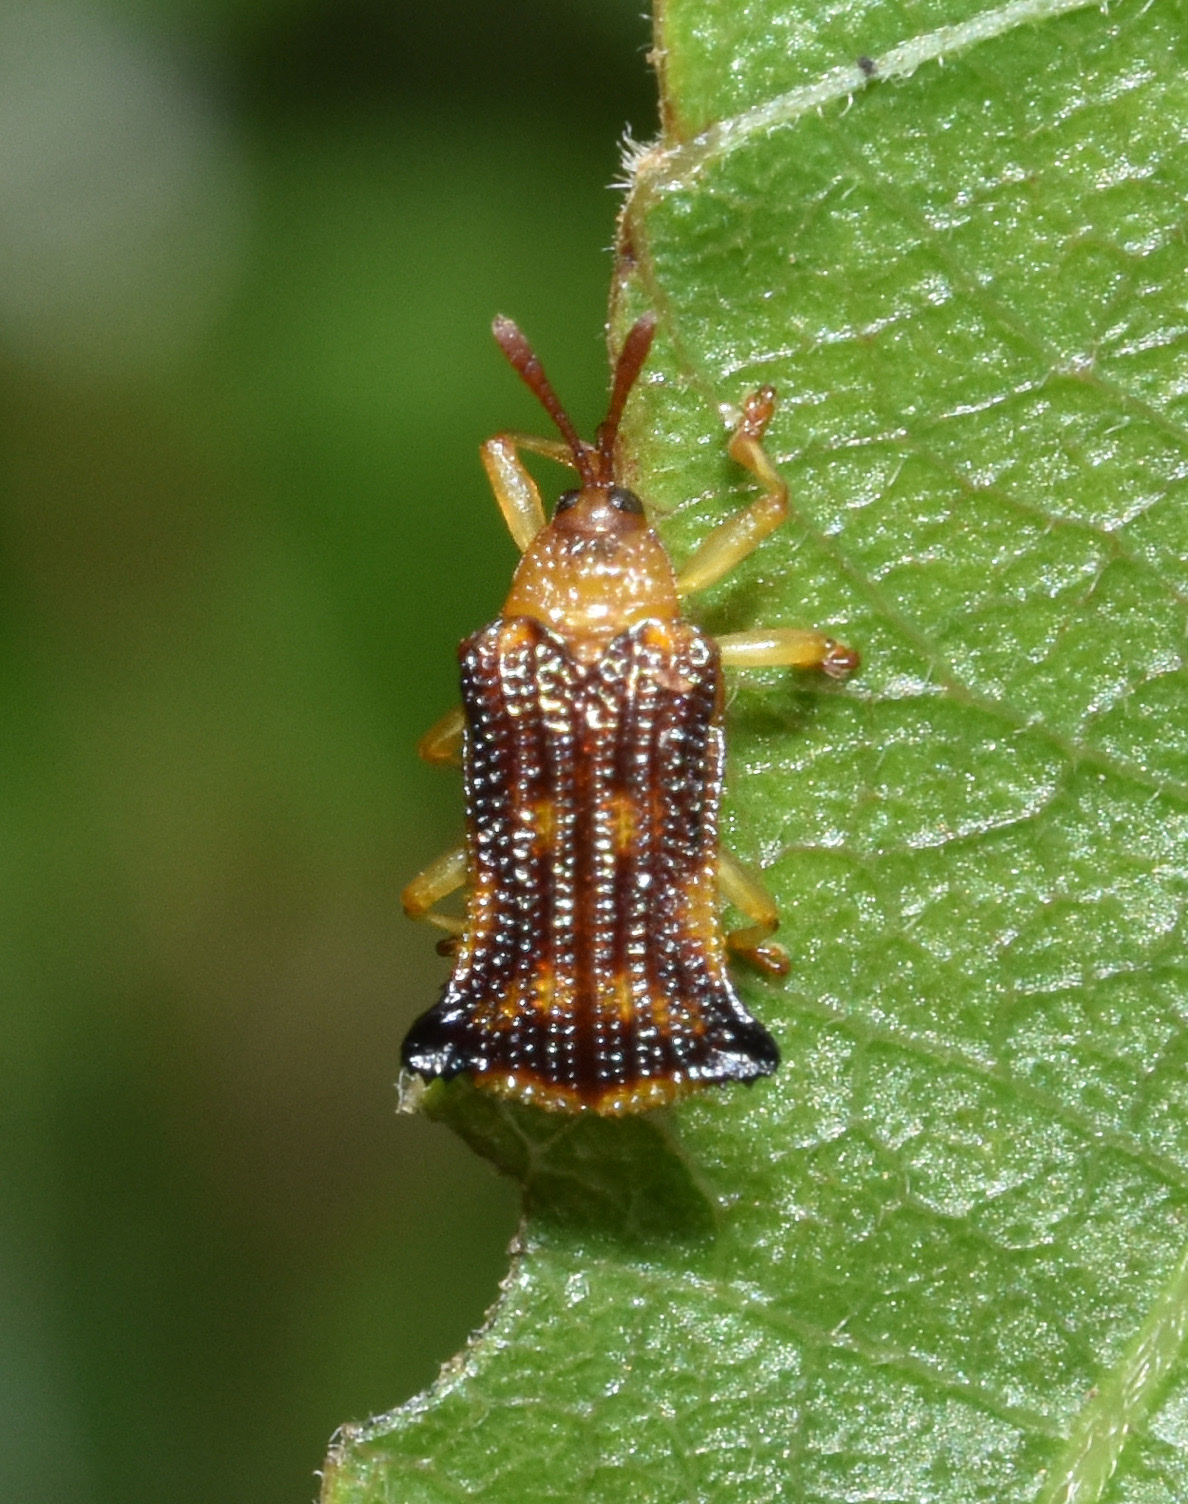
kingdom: Animalia
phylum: Arthropoda
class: Insecta
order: Coleoptera
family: Chrysomelidae
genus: Uroplata
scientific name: Uroplata fulvopustulata
